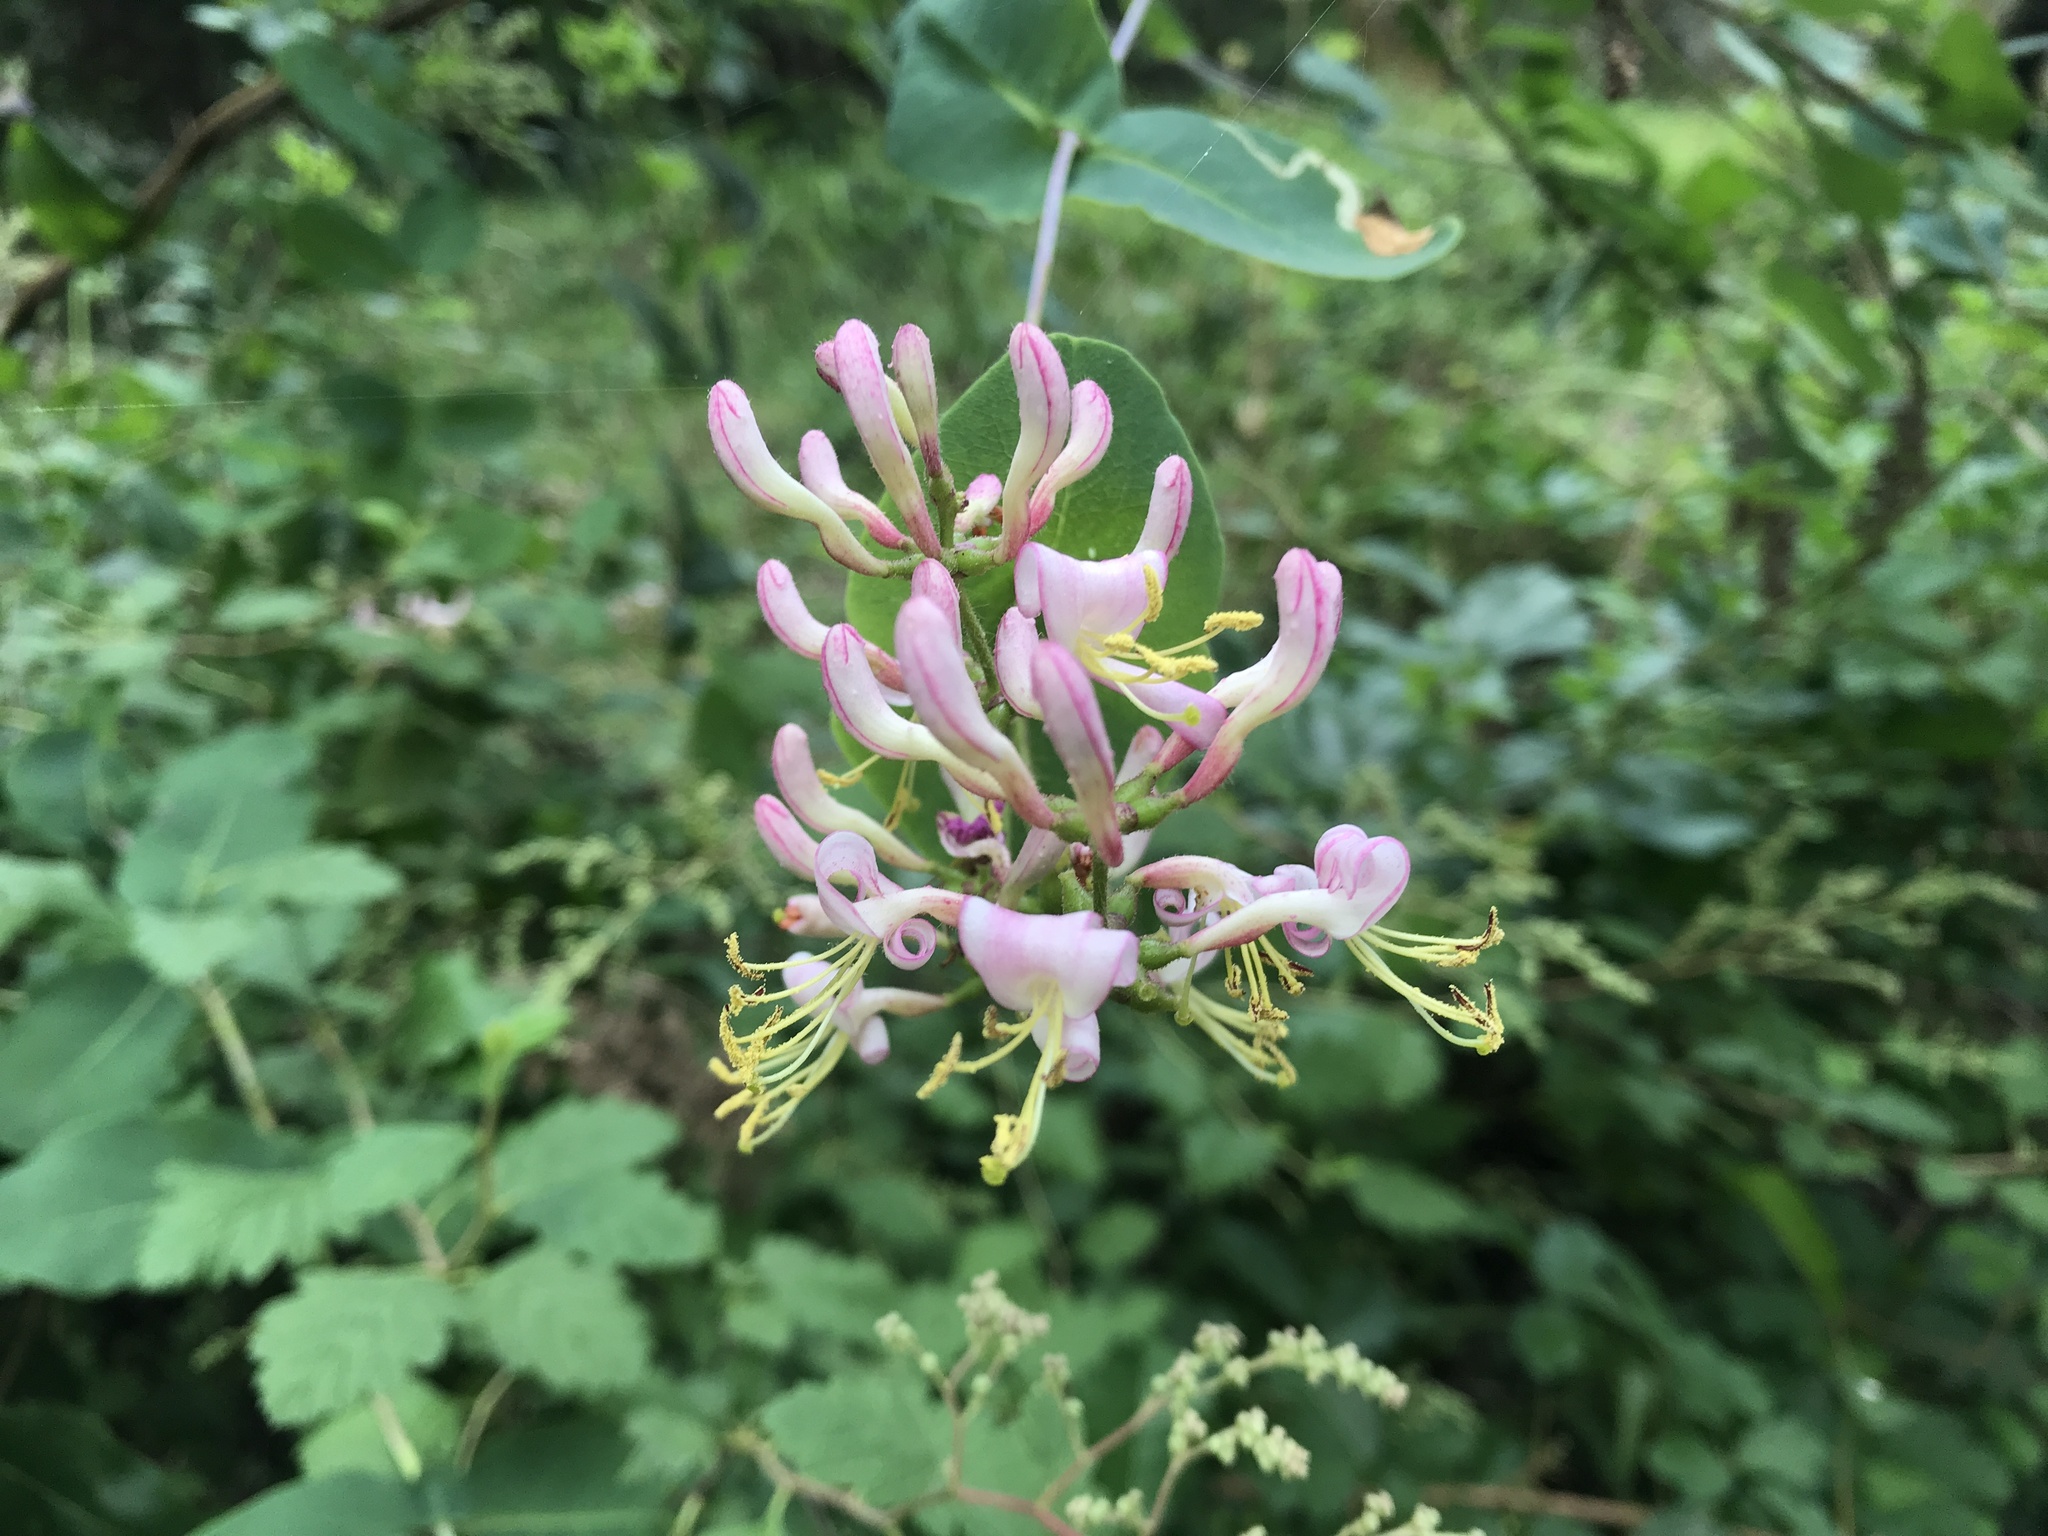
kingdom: Plantae
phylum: Tracheophyta
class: Magnoliopsida
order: Dipsacales
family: Caprifoliaceae
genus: Lonicera
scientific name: Lonicera hispidula
